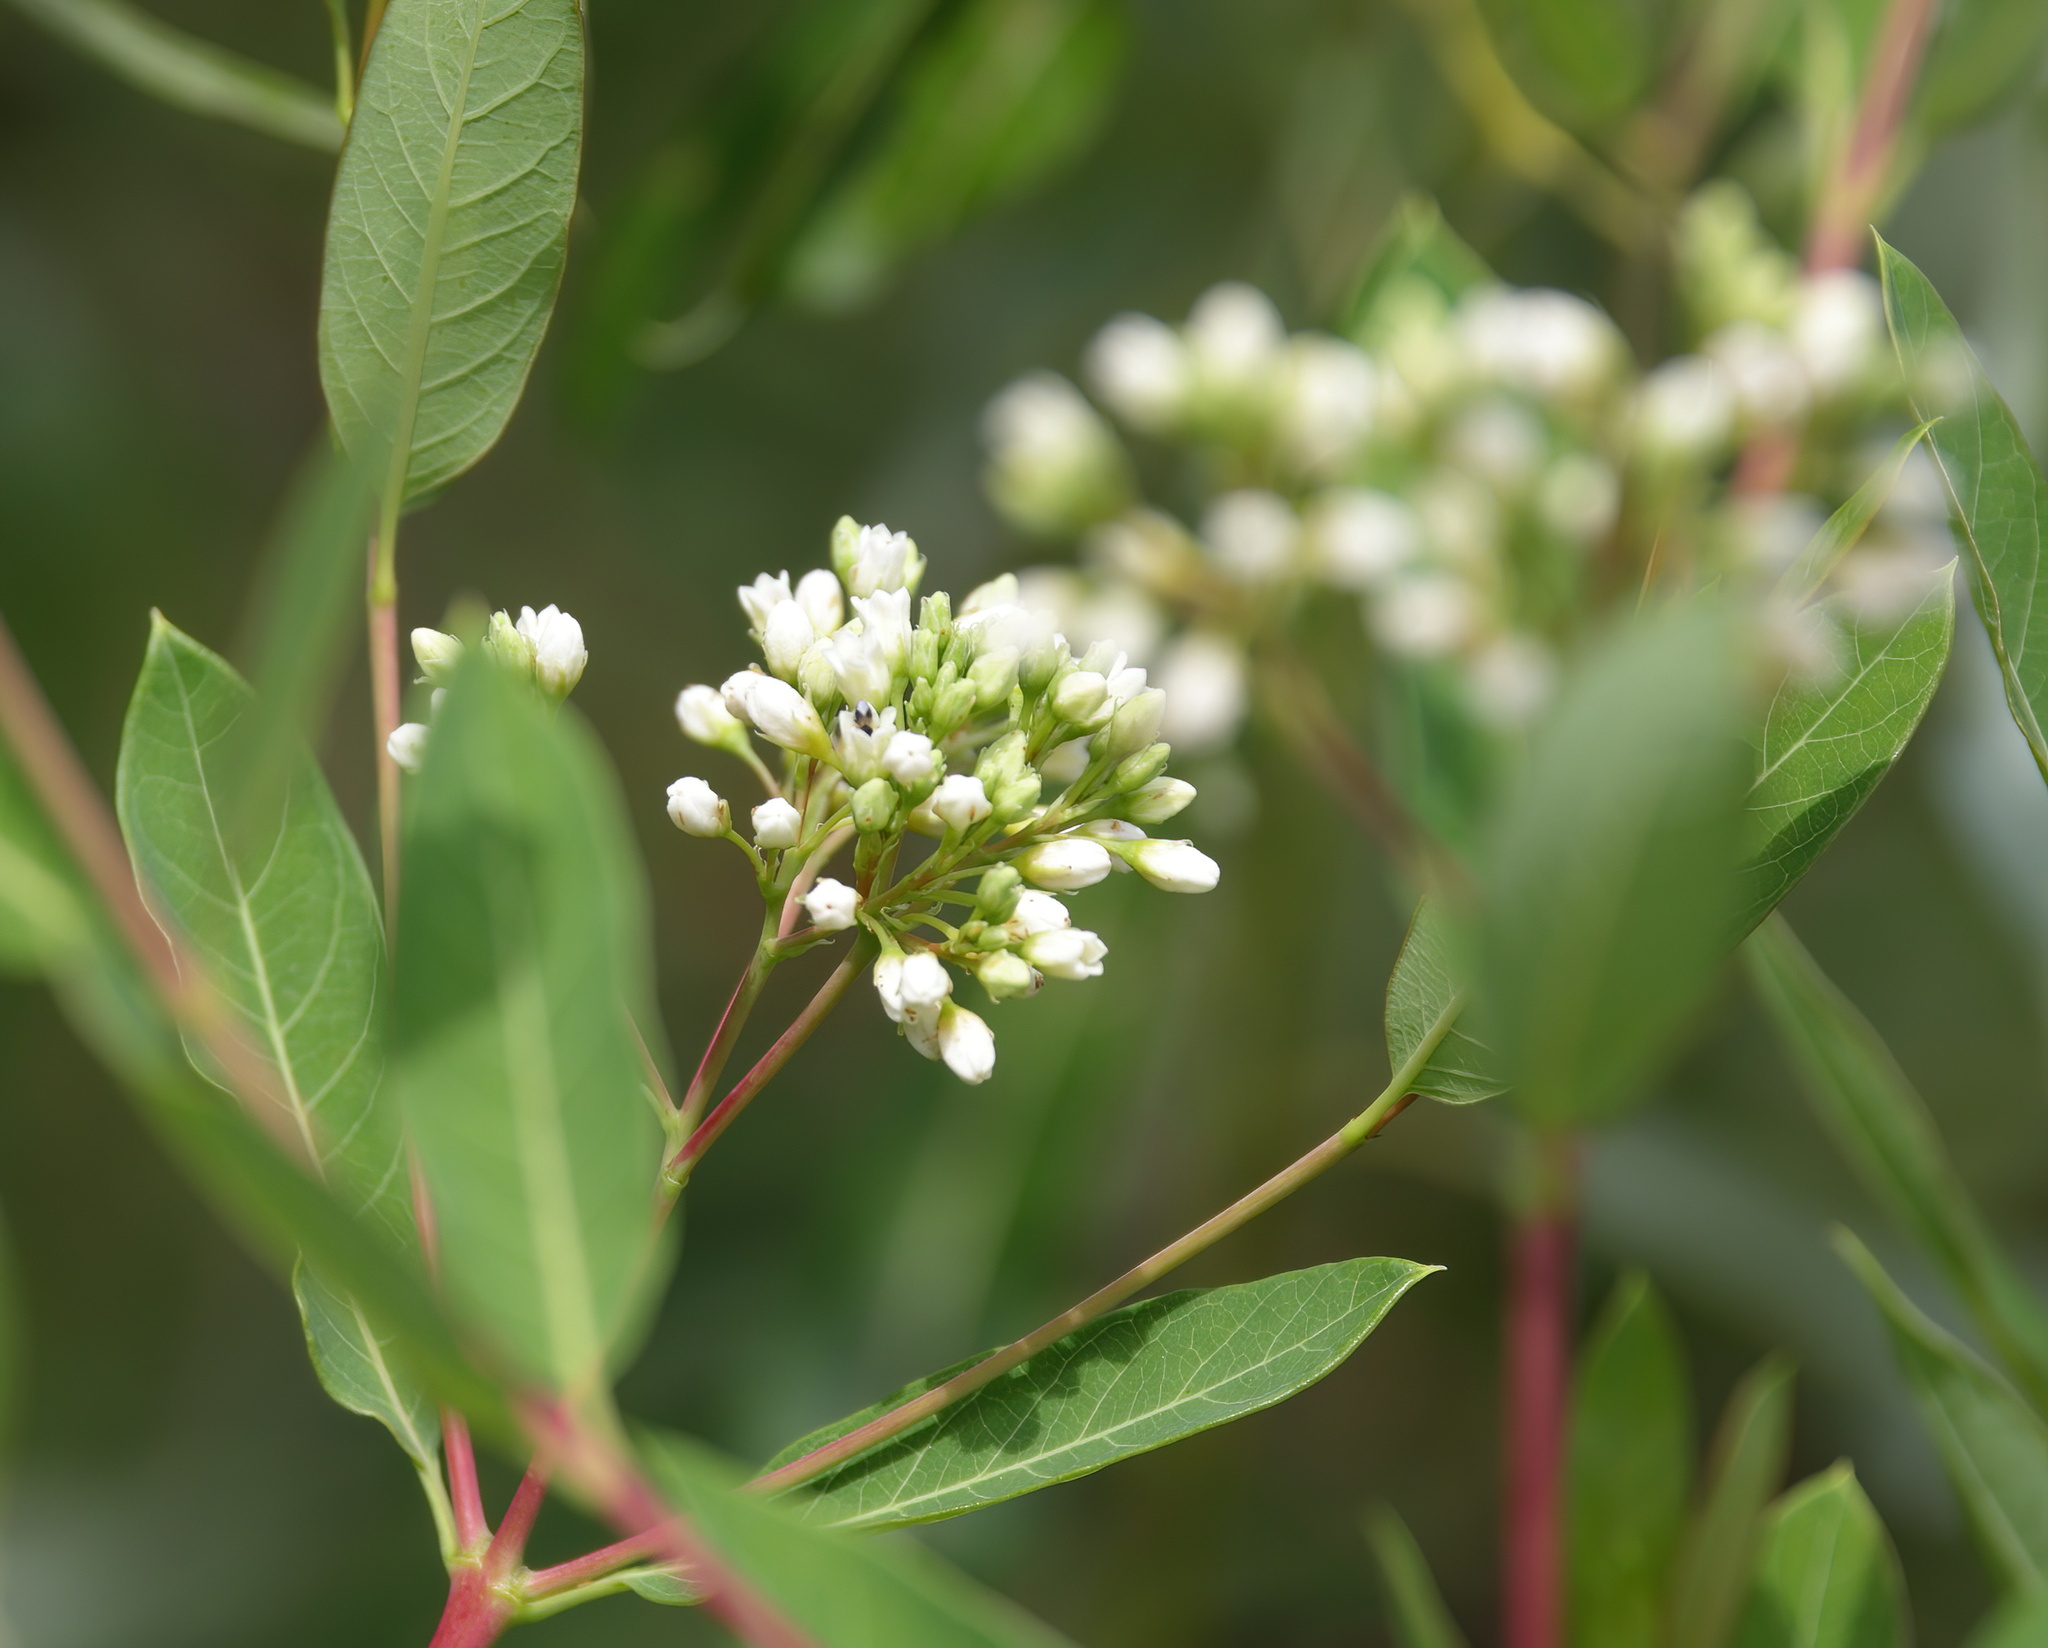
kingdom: Plantae
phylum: Tracheophyta
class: Magnoliopsida
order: Gentianales
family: Apocynaceae
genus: Apocynum
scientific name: Apocynum cannabinum
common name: Hemp dogbane
